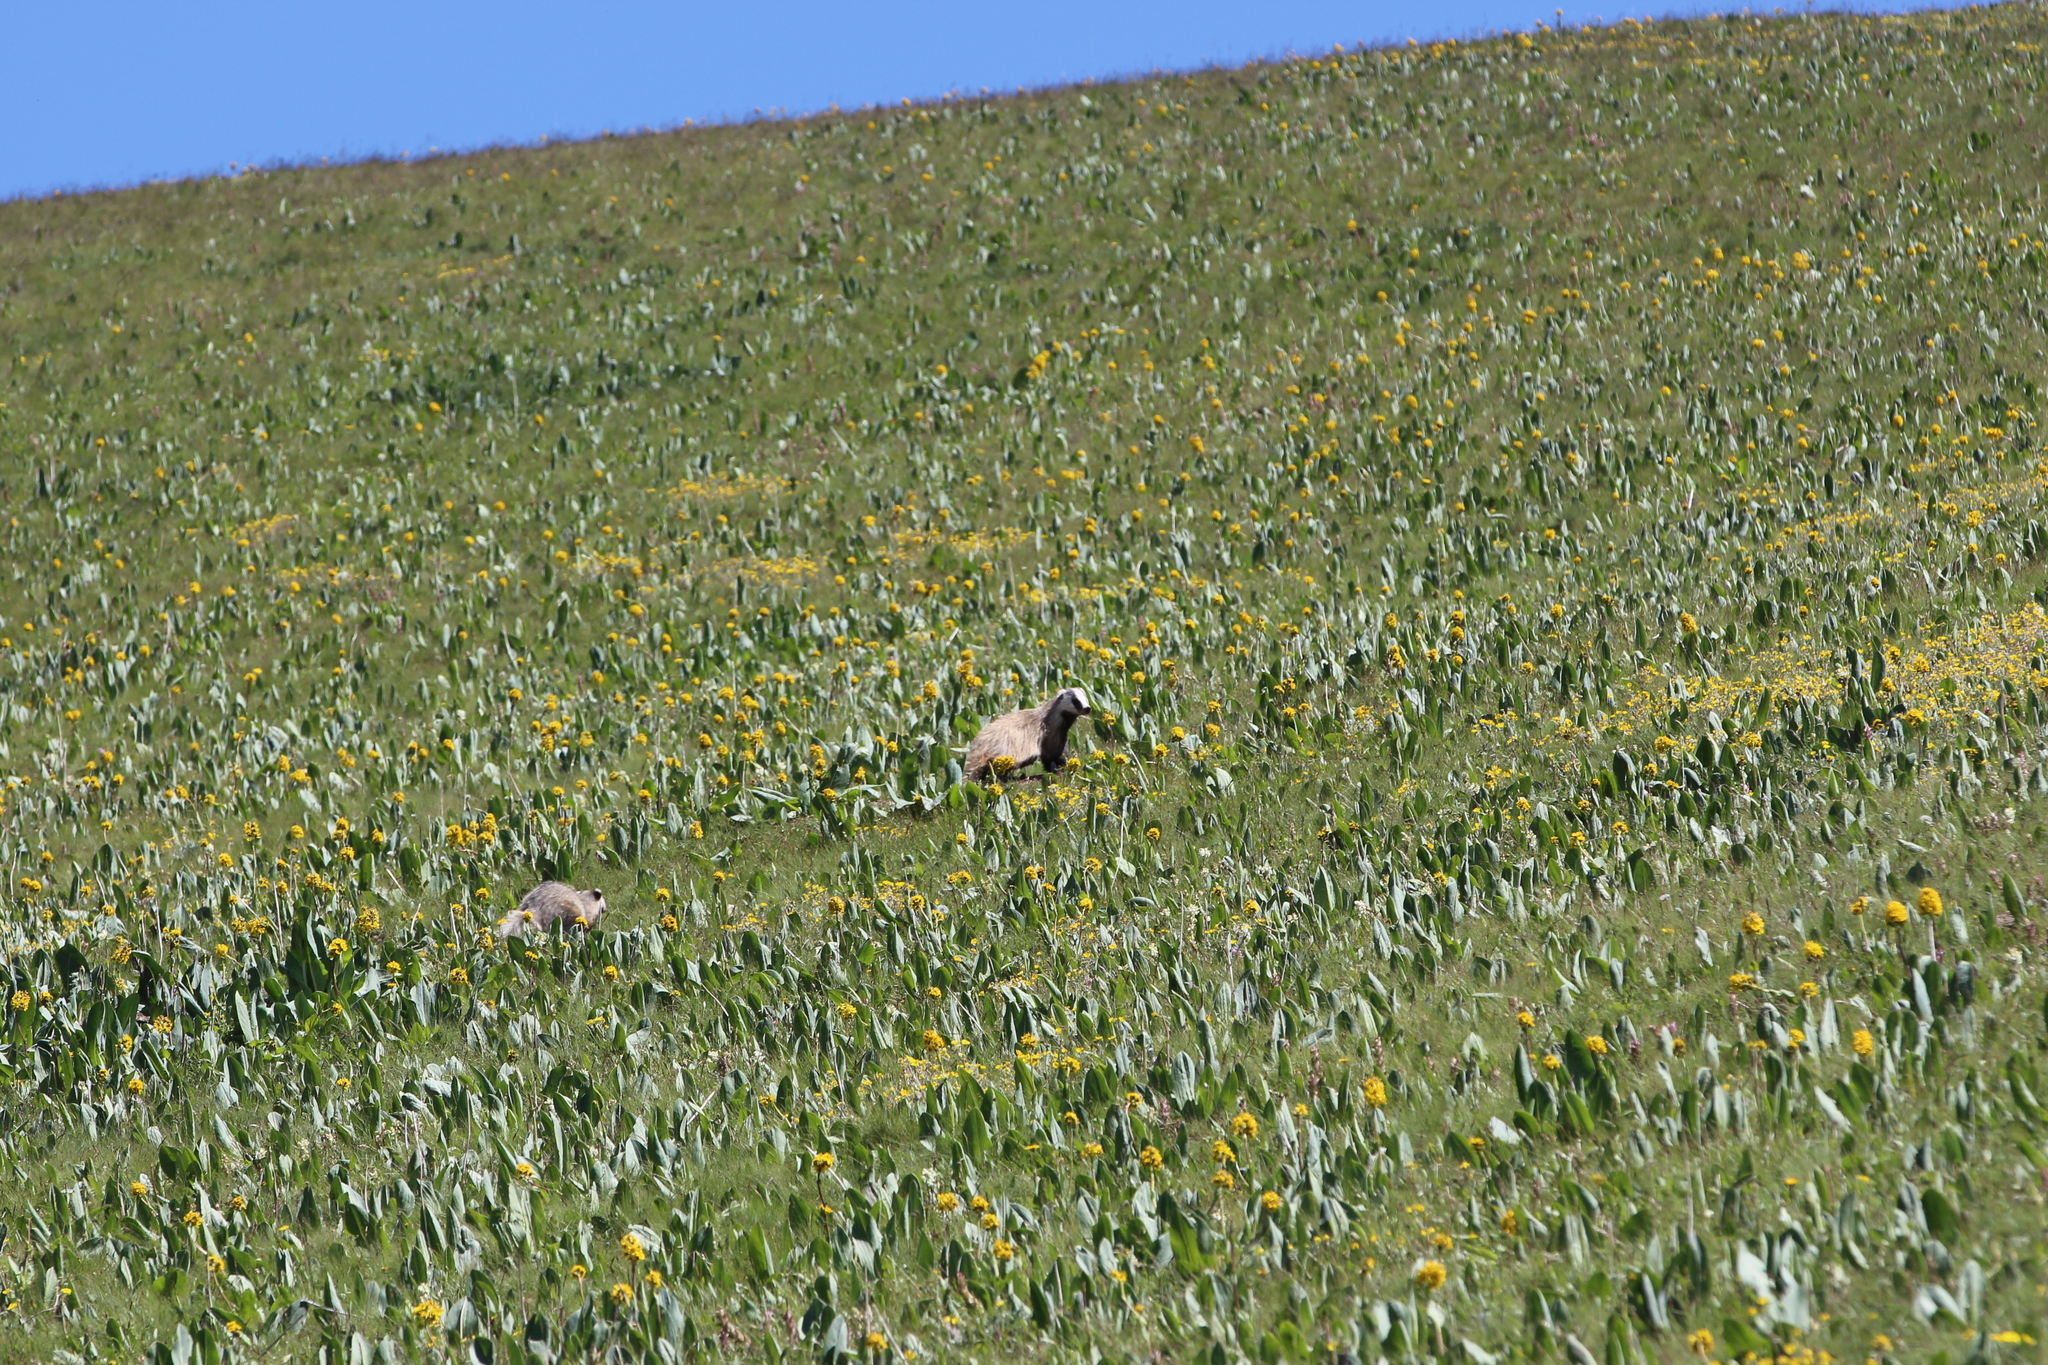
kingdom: Animalia
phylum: Chordata
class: Mammalia
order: Carnivora
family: Mustelidae
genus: Meles
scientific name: Meles leucurus
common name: Asian badger
